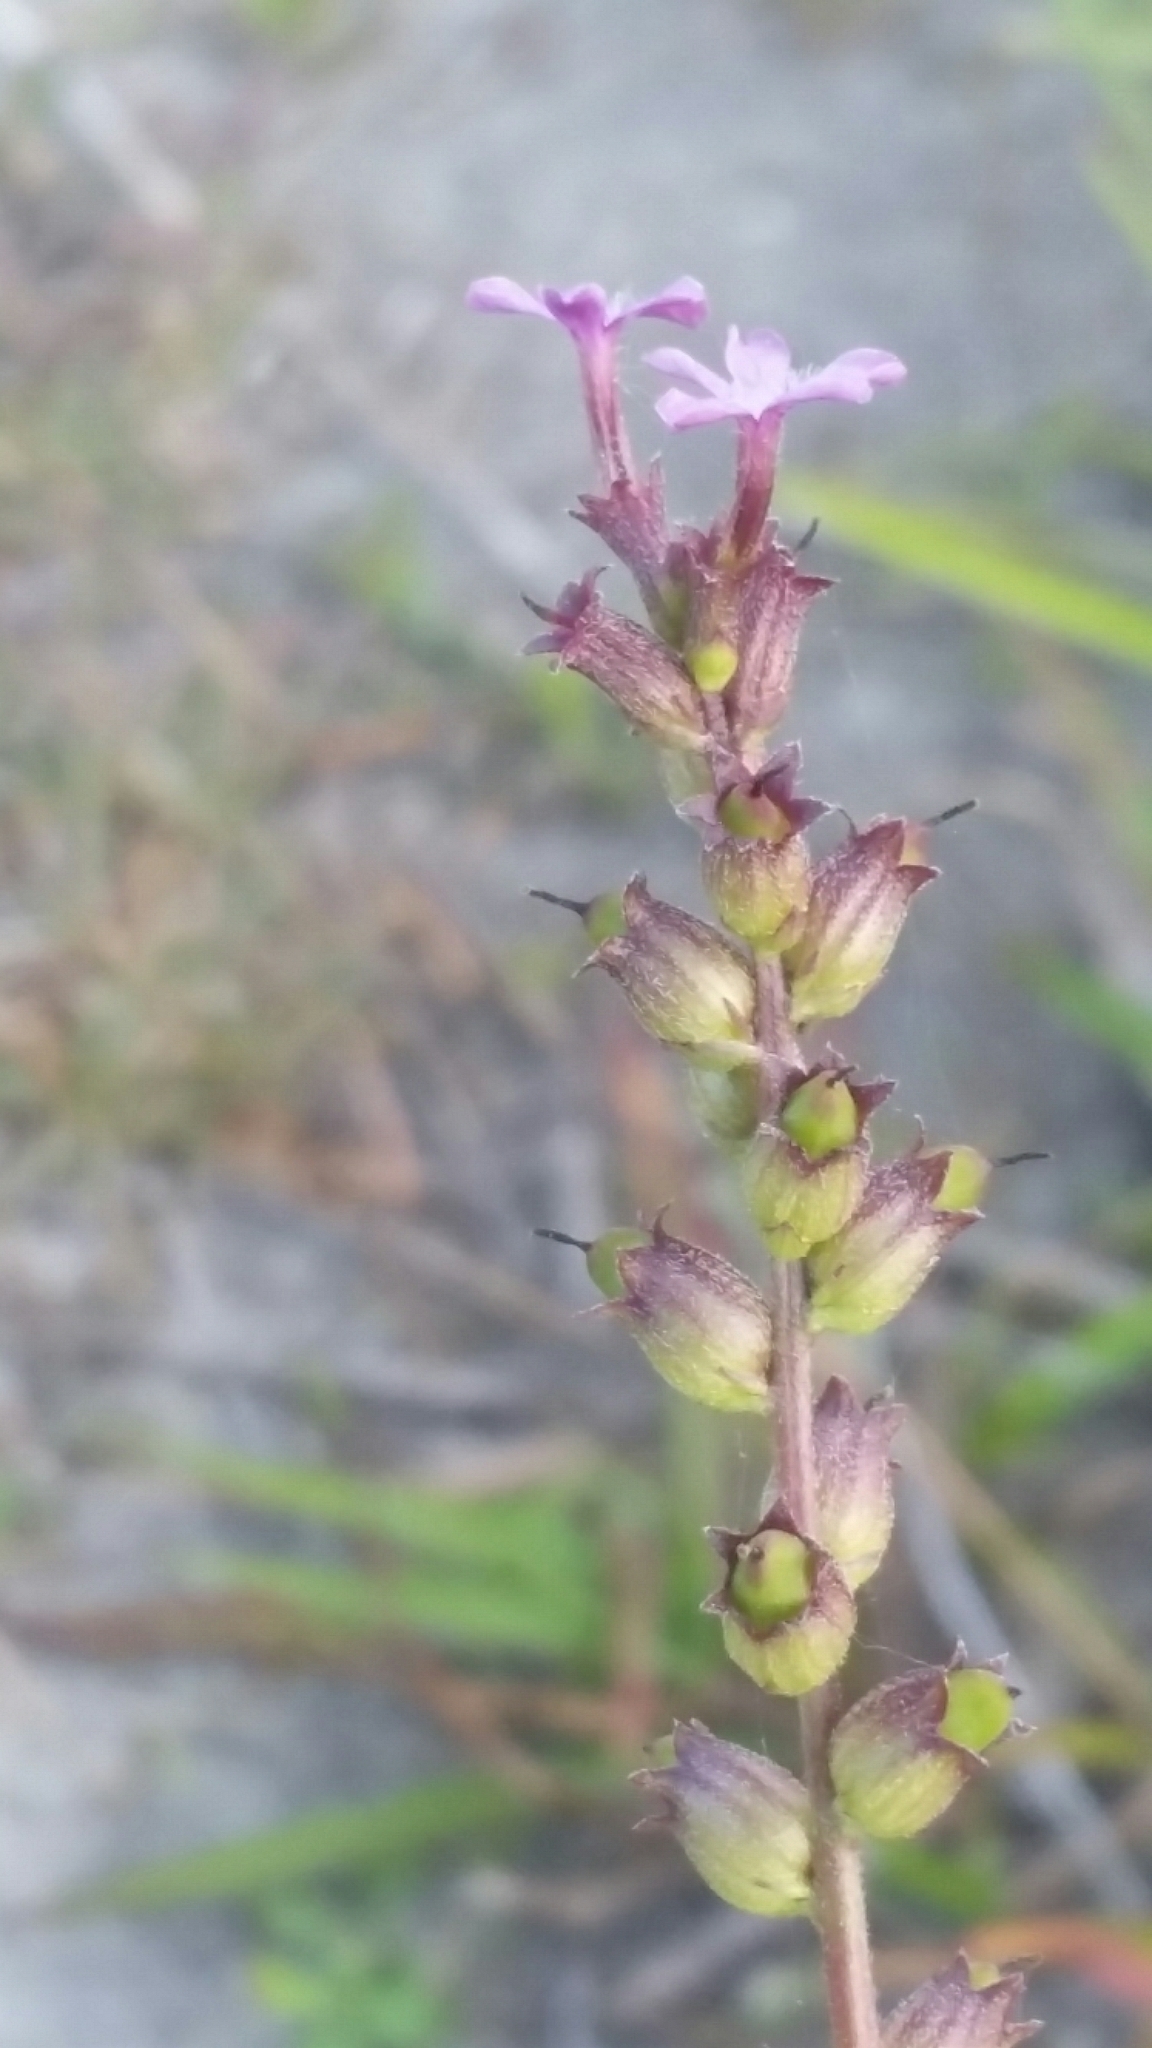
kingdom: Plantae
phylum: Tracheophyta
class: Magnoliopsida
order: Lamiales
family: Orobanchaceae
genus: Buchnera
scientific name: Buchnera floridana
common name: Florida bluehearts
